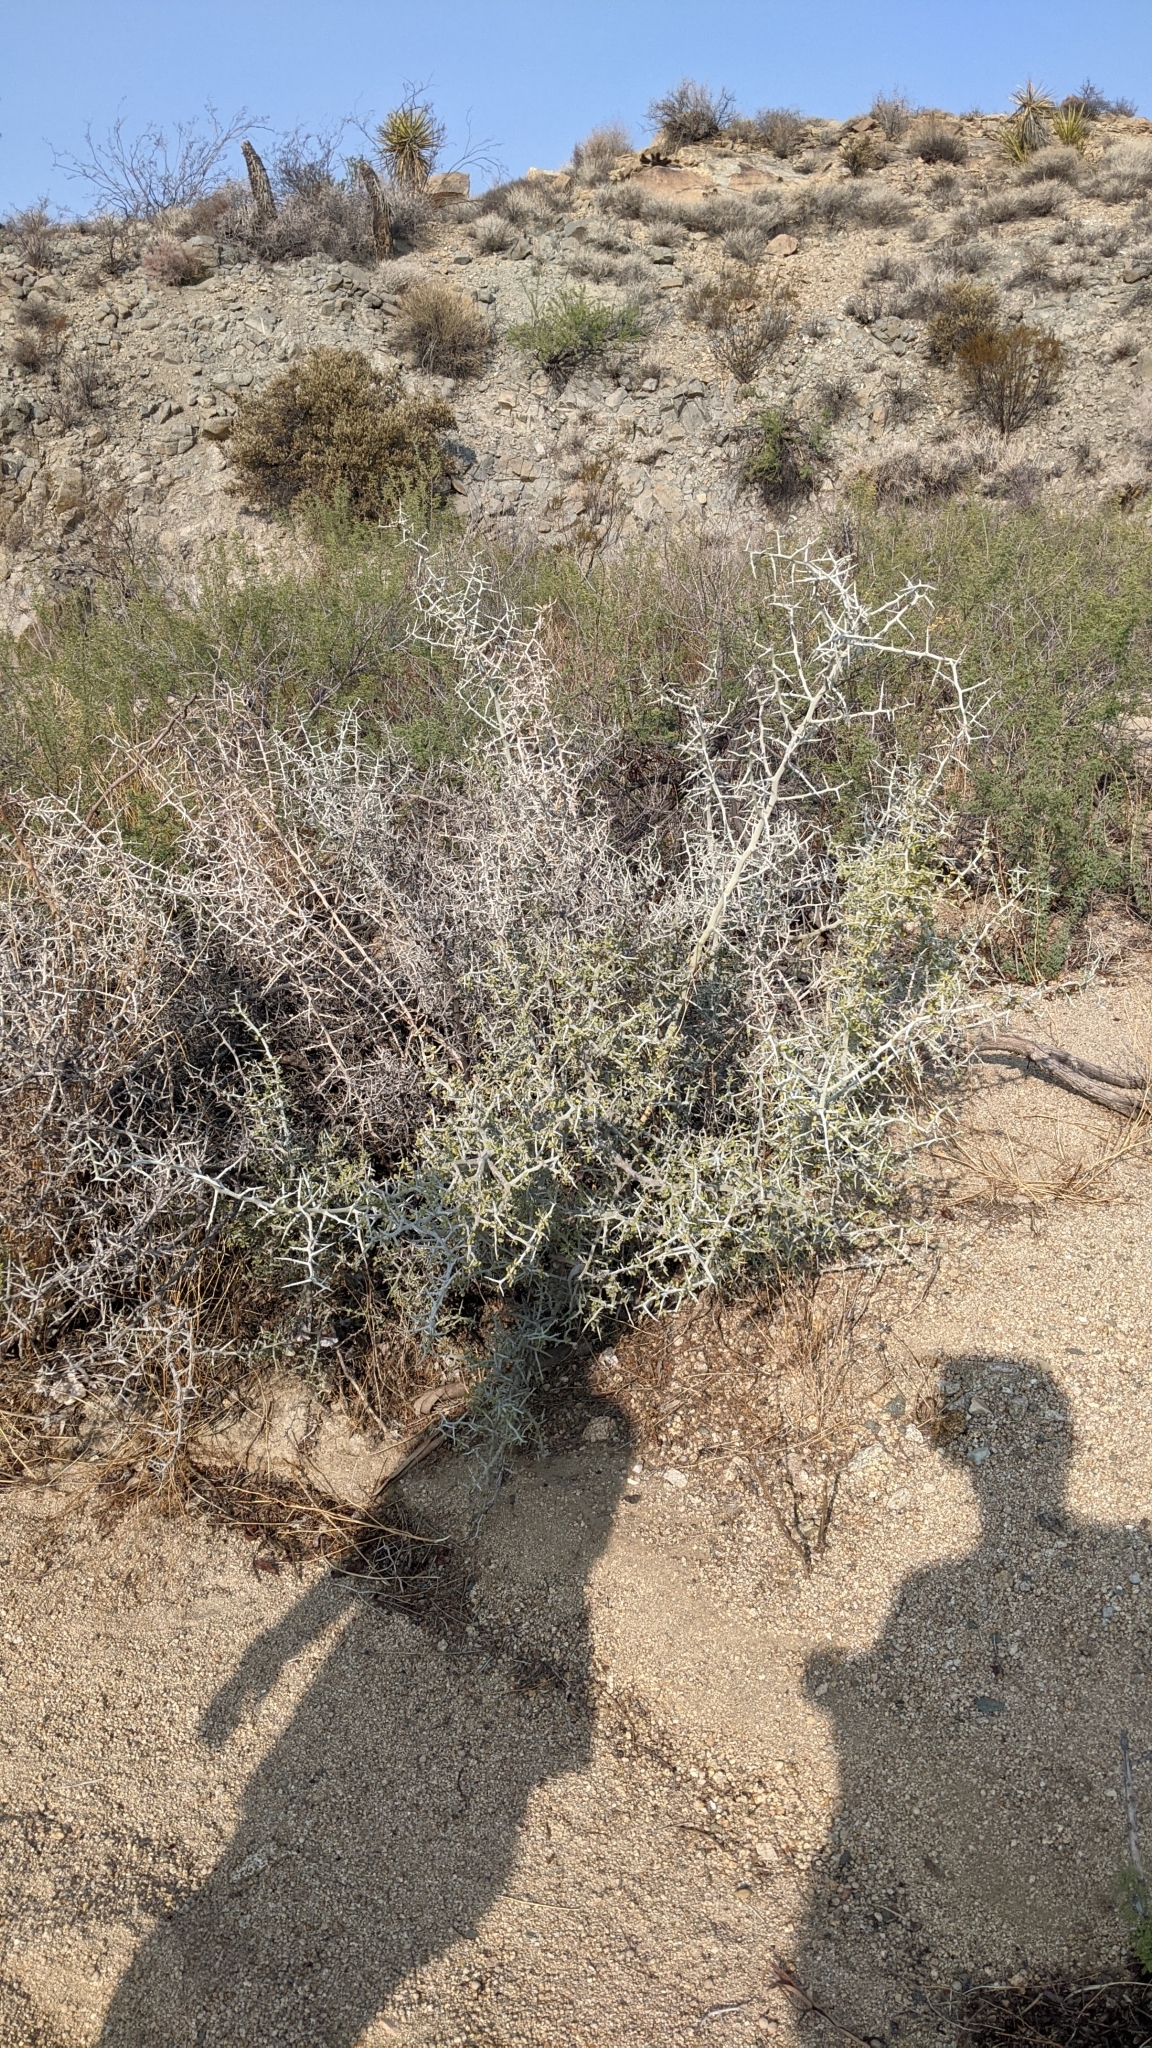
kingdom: Plantae
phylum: Tracheophyta
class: Magnoliopsida
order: Rosales
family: Rhamnaceae
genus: Sarcomphalus
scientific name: Sarcomphalus obtusifolius
